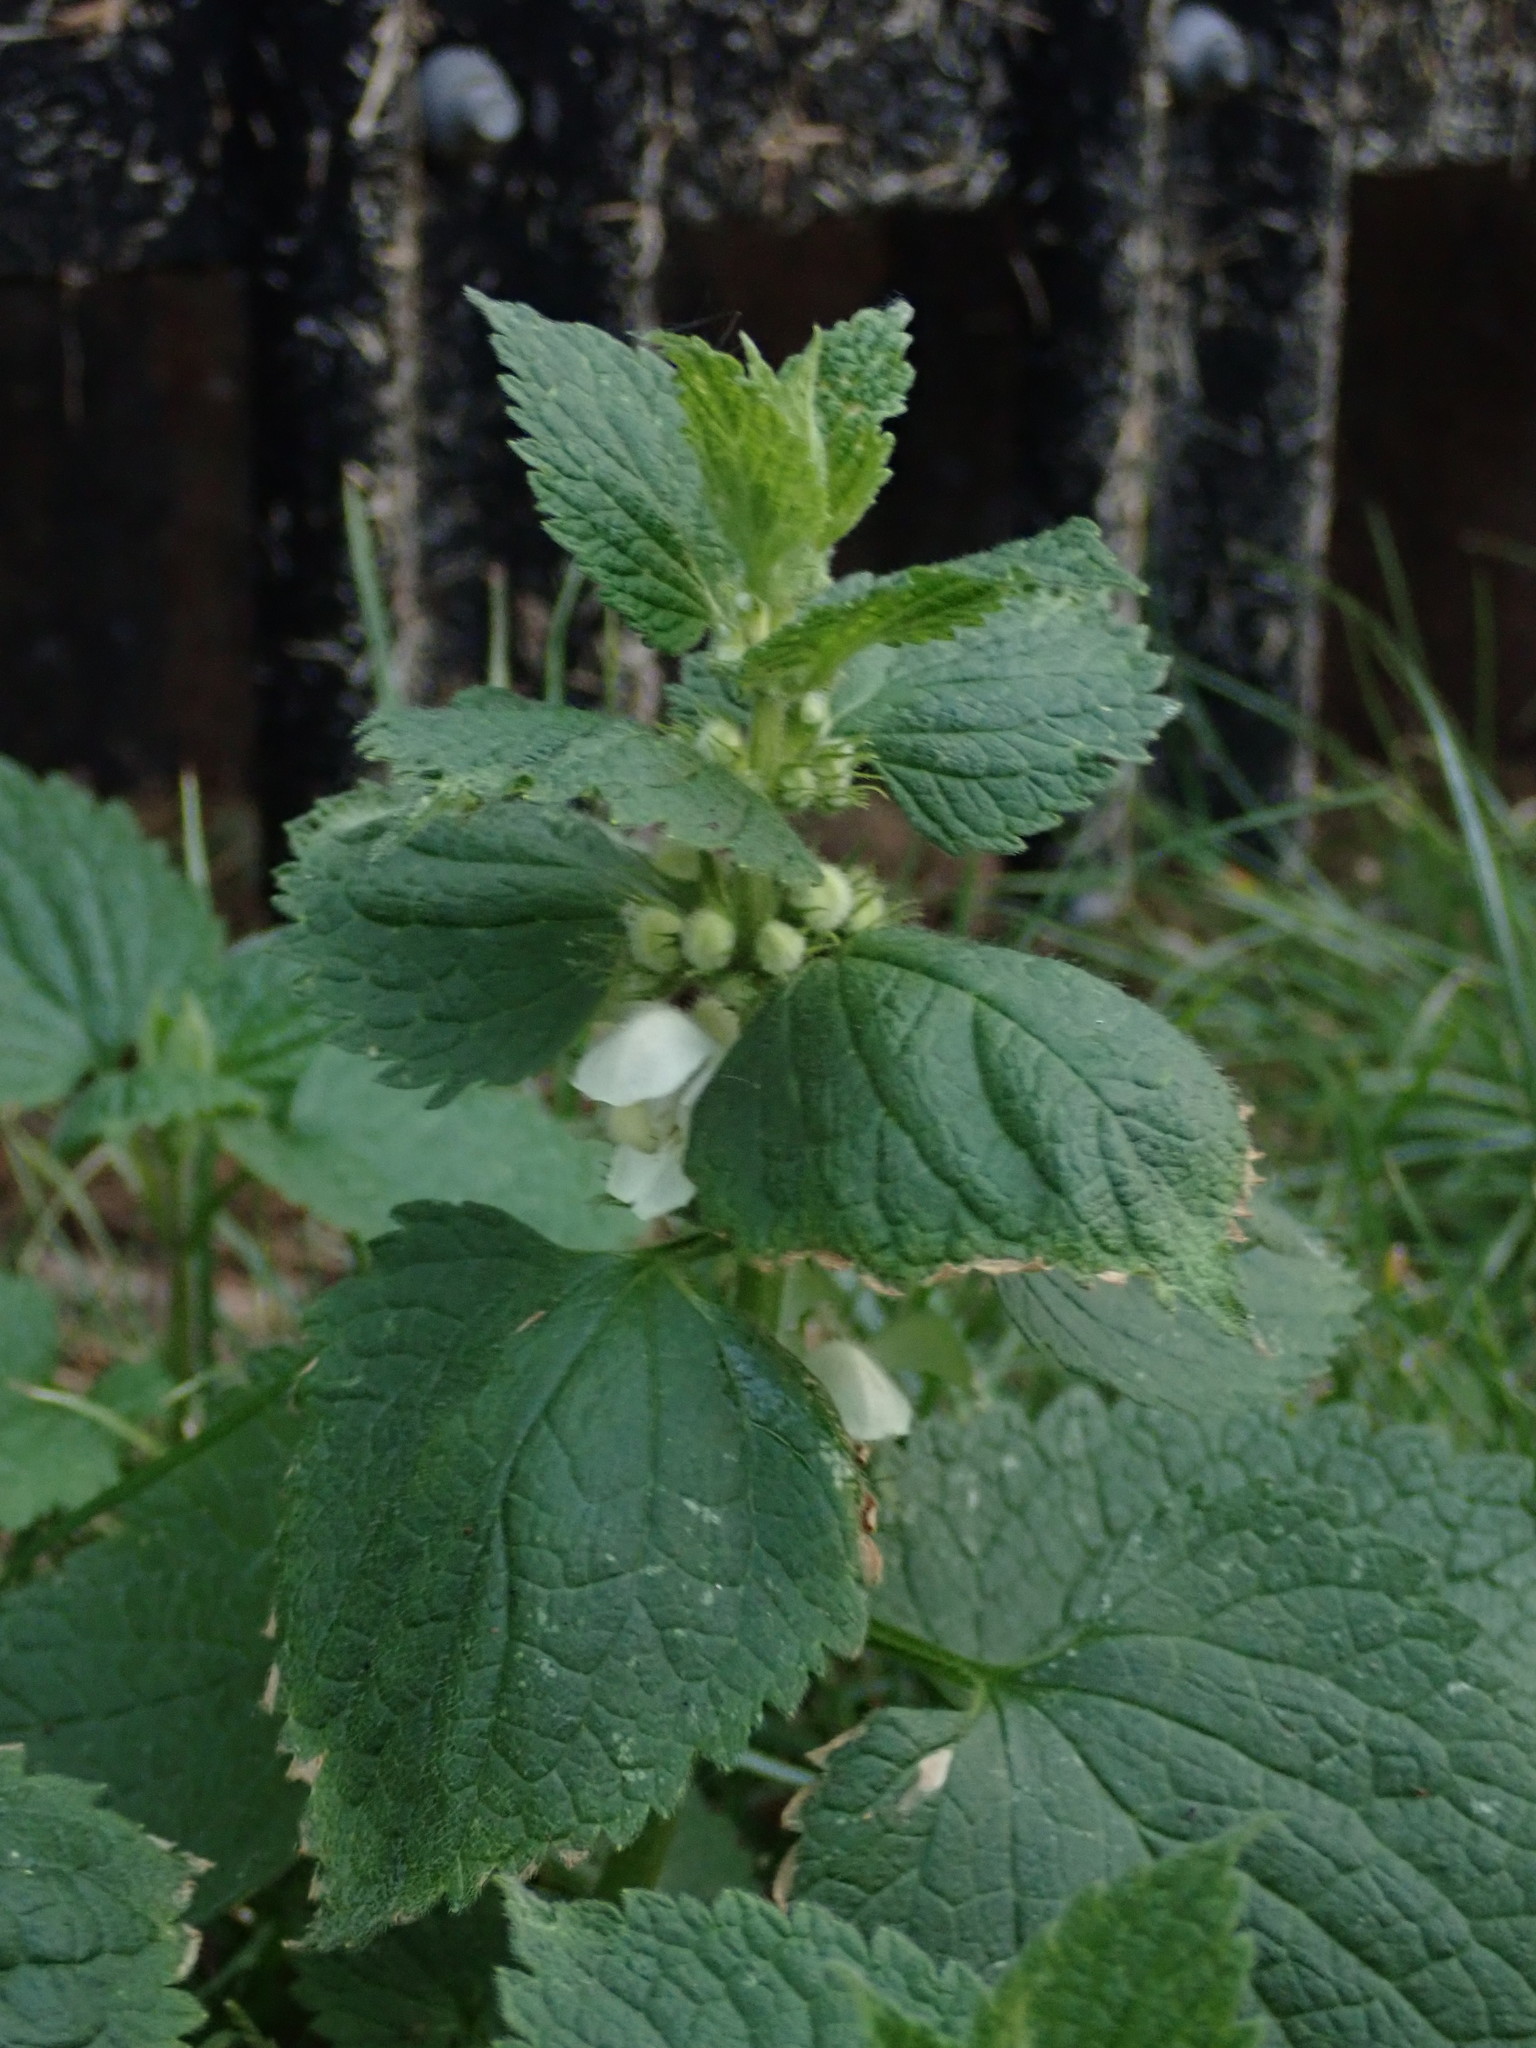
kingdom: Plantae
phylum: Tracheophyta
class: Magnoliopsida
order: Lamiales
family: Lamiaceae
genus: Lamium
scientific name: Lamium album
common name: White dead-nettle
